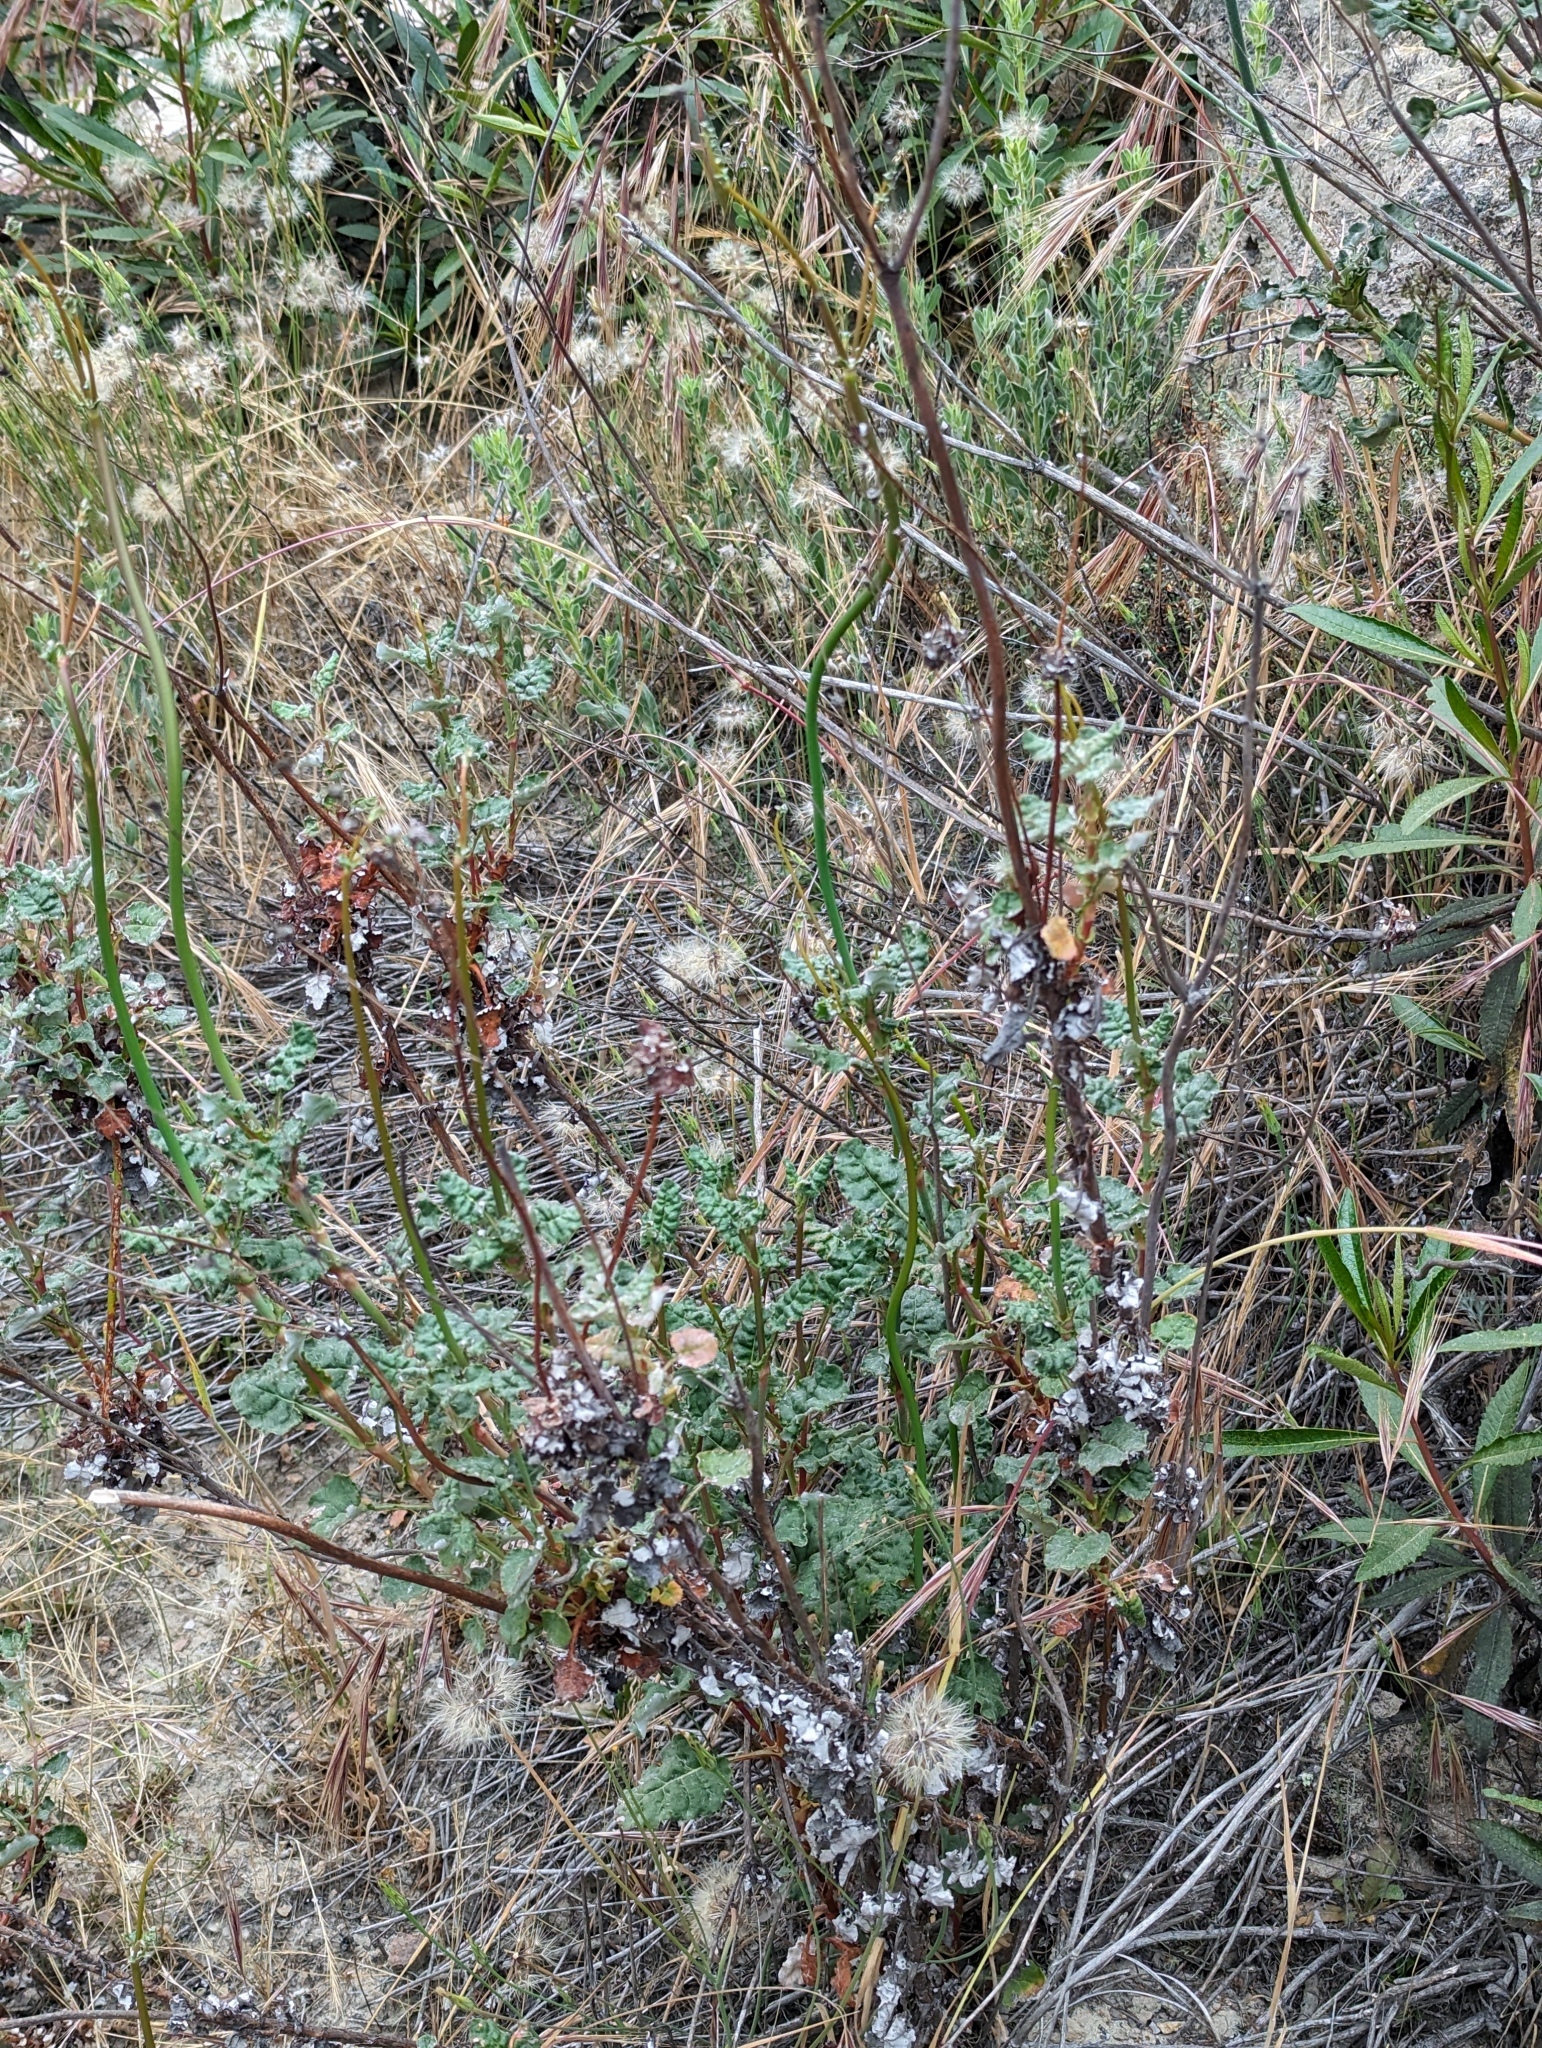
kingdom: Plantae
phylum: Tracheophyta
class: Magnoliopsida
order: Caryophyllales
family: Polygonaceae
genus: Eriogonum
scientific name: Eriogonum nudum
